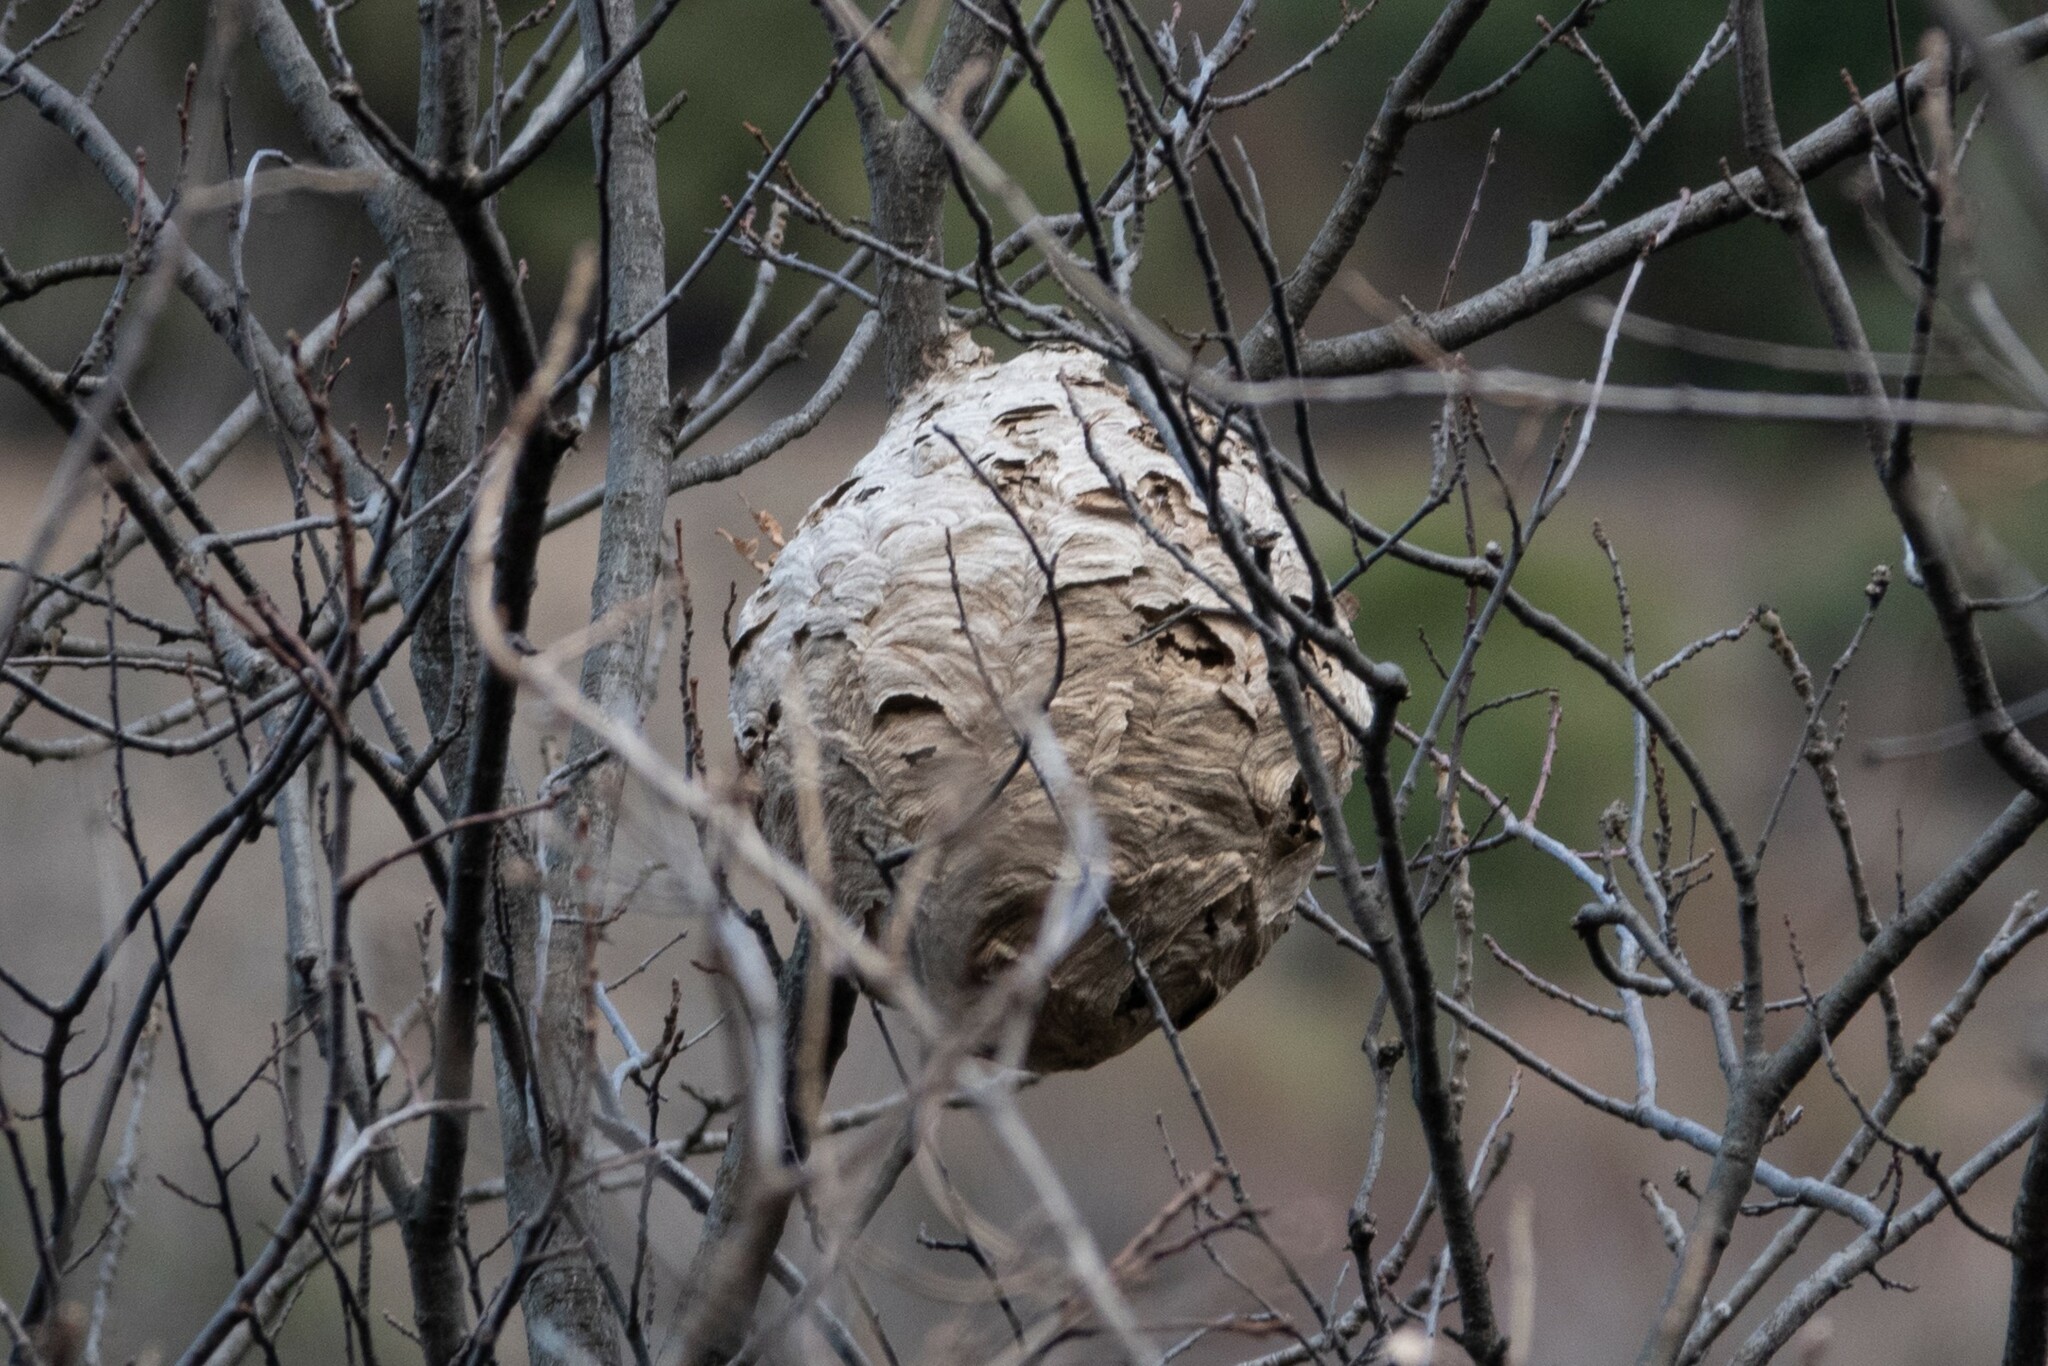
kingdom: Animalia
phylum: Arthropoda
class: Insecta
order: Hymenoptera
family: Vespidae
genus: Vespa
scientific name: Vespa velutina
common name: Asian hornet
